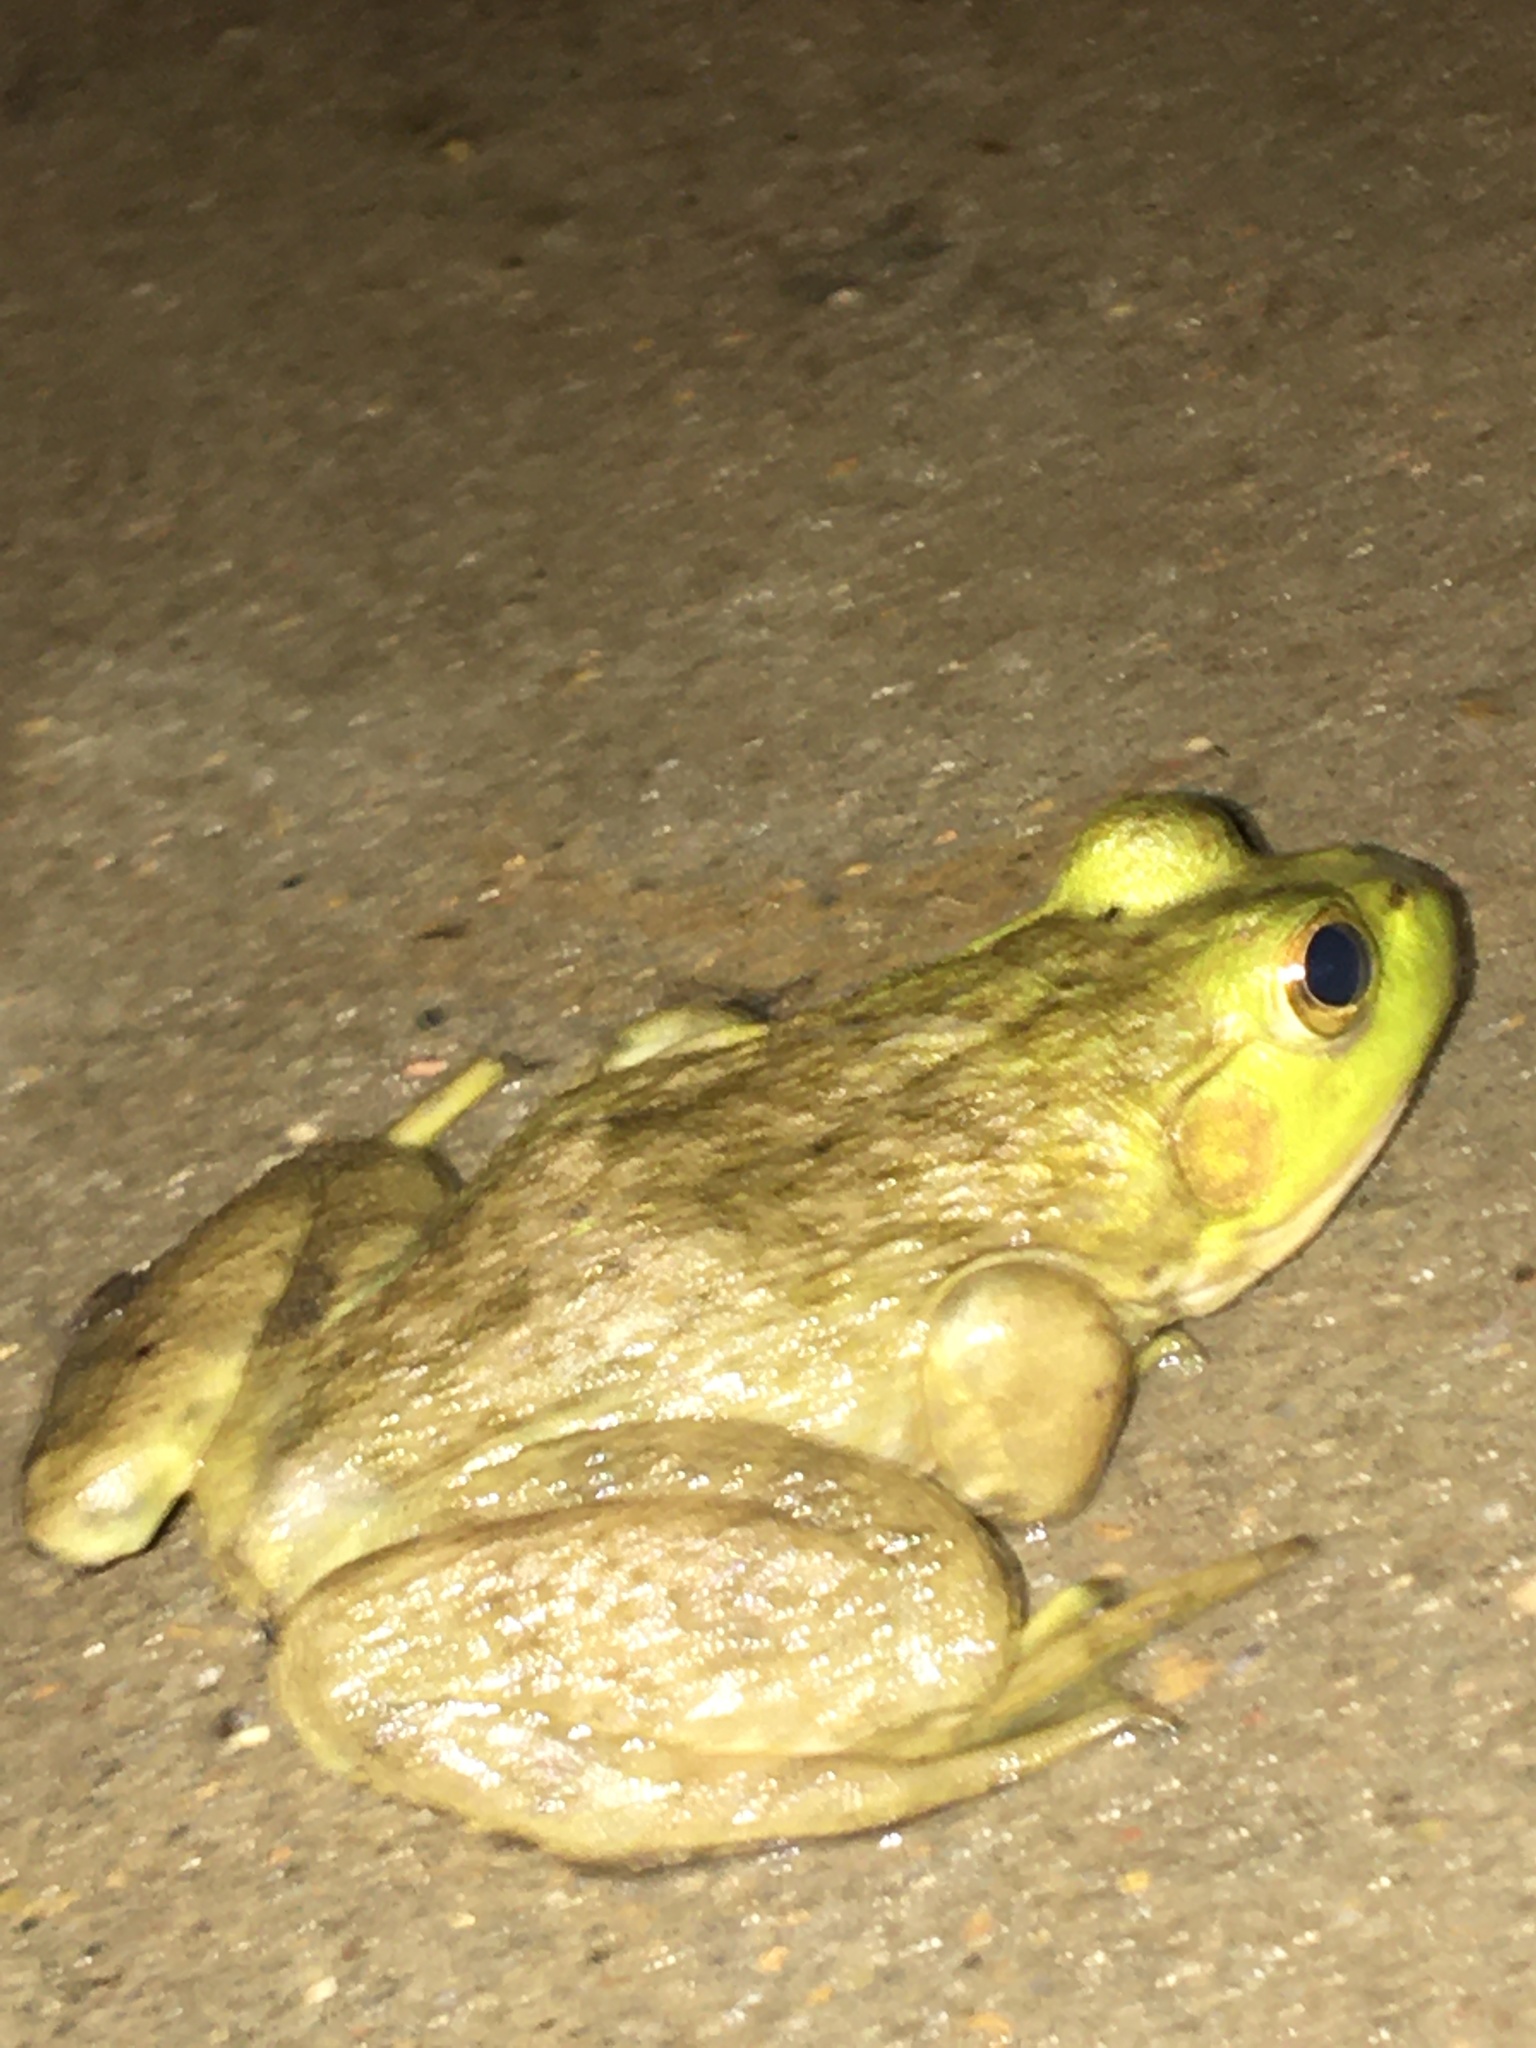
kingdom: Animalia
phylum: Chordata
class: Amphibia
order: Anura
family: Ranidae
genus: Lithobates
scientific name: Lithobates catesbeianus
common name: American bullfrog
